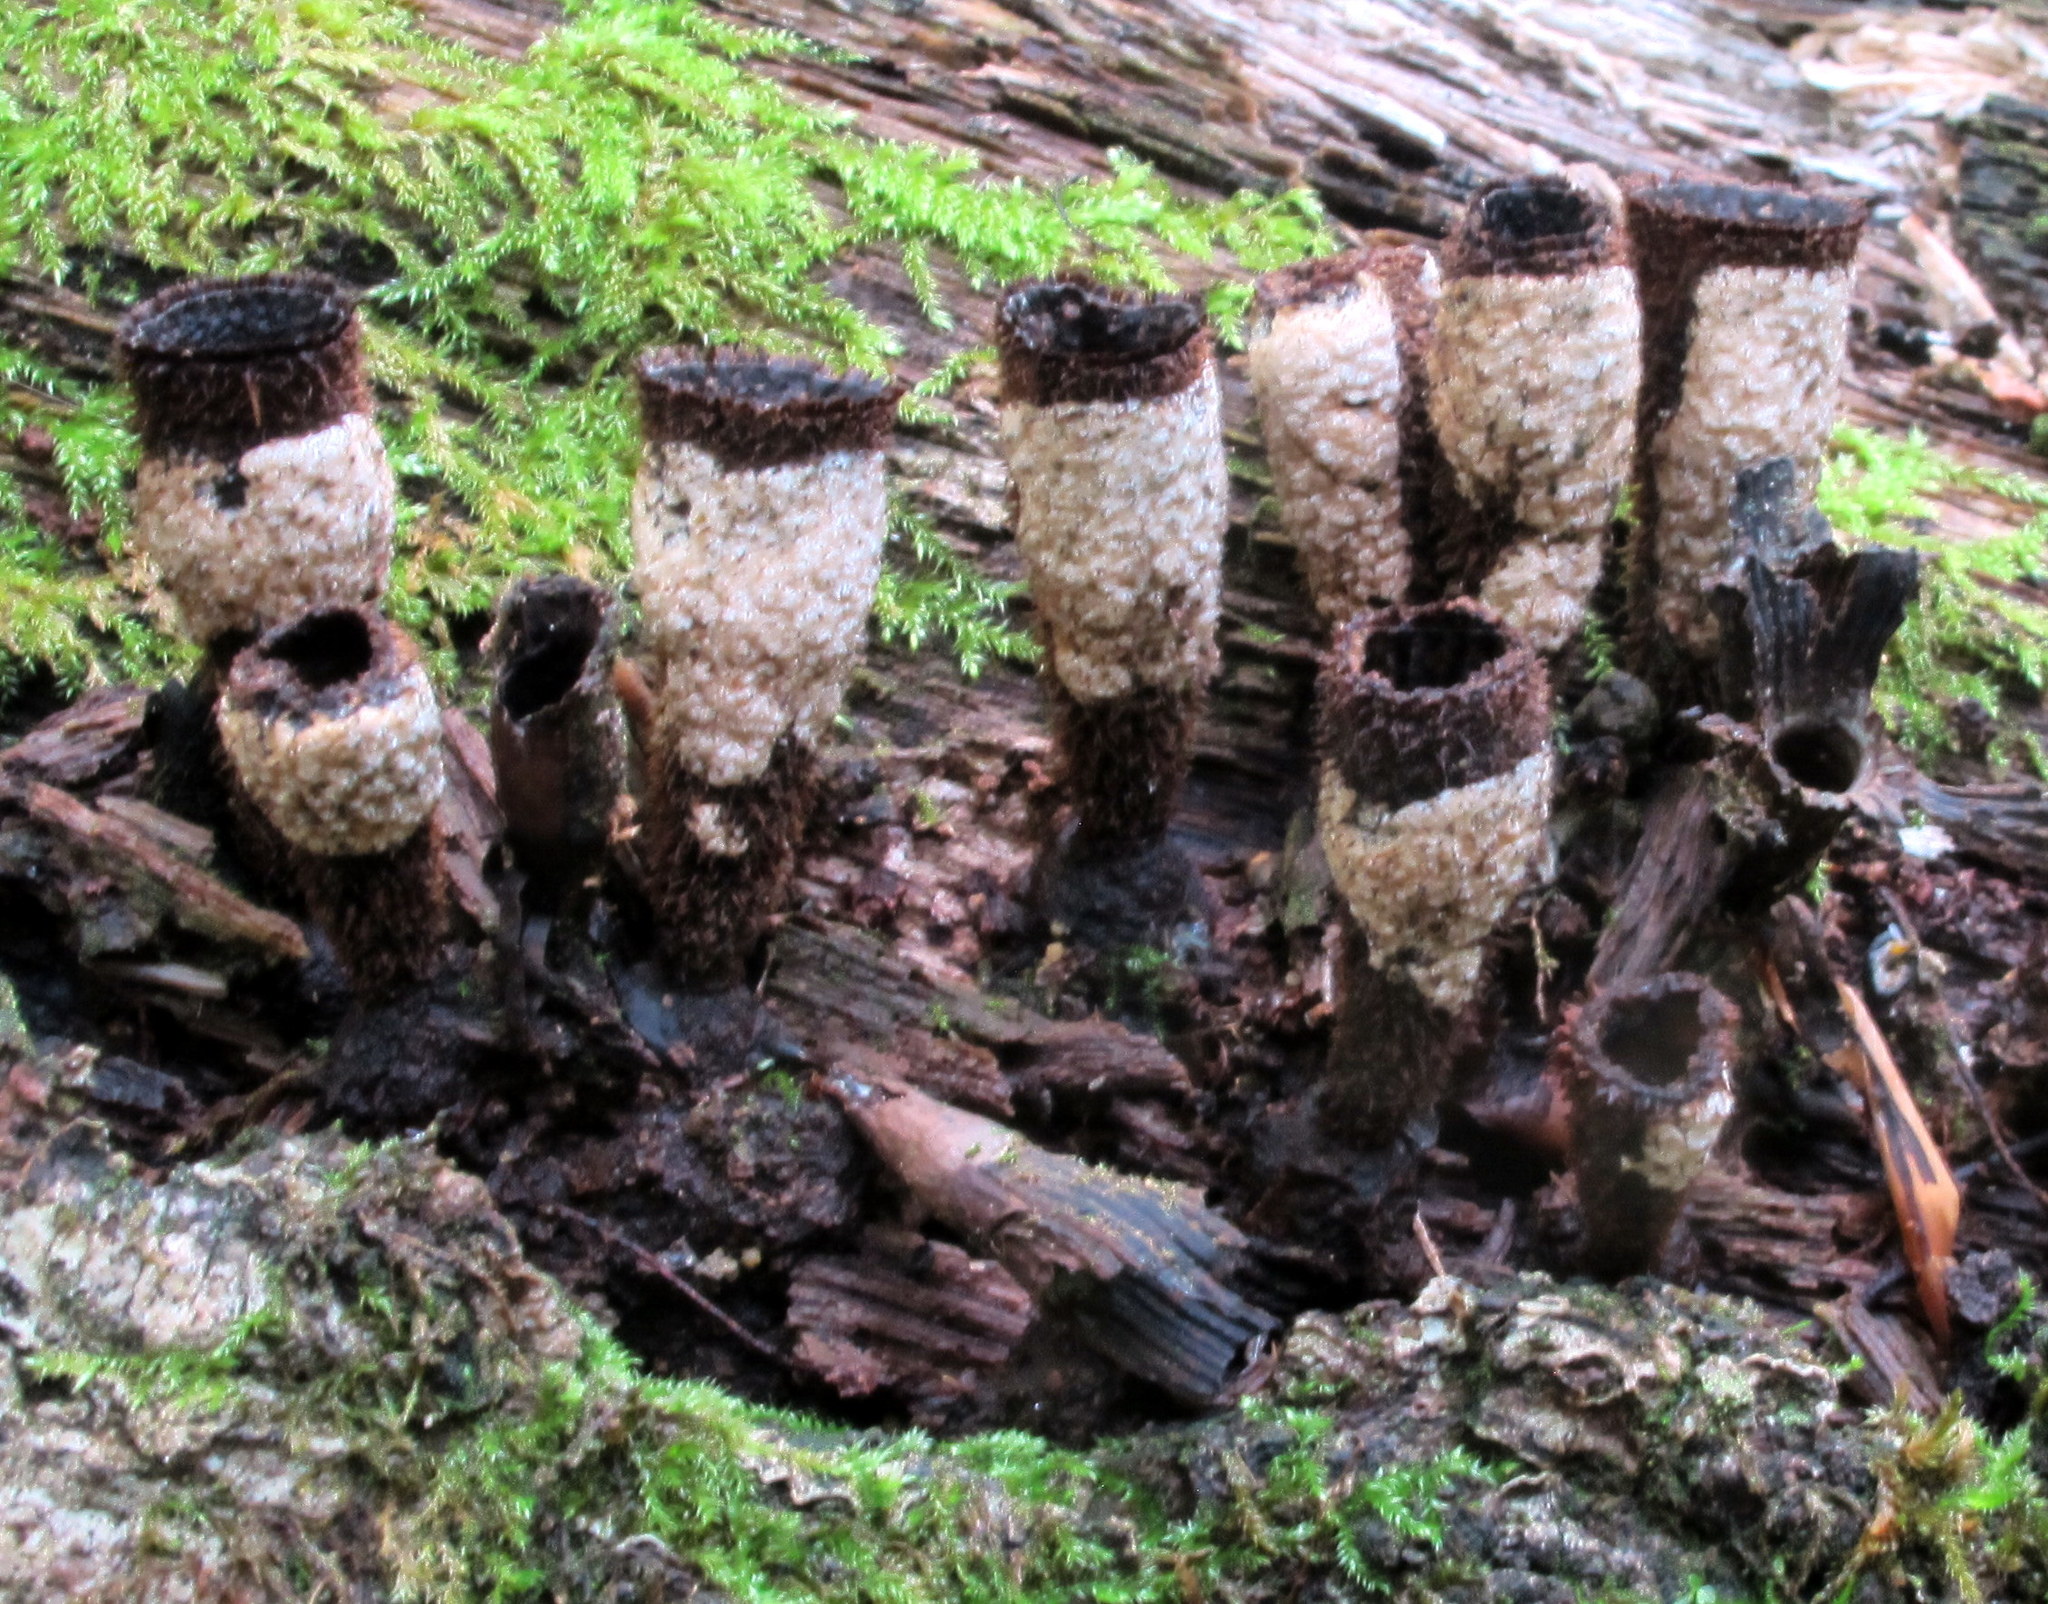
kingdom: Fungi
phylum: Ascomycota
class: Sordariomycetes
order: Hypocreales
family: Hypocreaceae
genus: Trichoderma
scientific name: Trichoderma latizonatum
